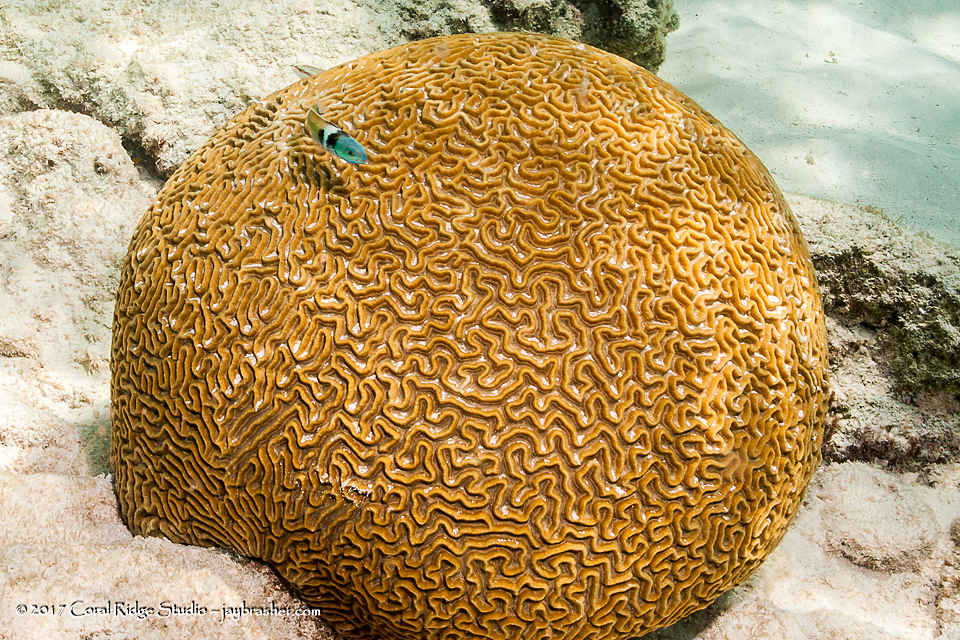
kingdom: Animalia
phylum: Cnidaria
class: Anthozoa
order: Scleractinia
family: Faviidae
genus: Pseudodiploria
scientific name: Pseudodiploria strigosa
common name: Symmetrical brain coral
